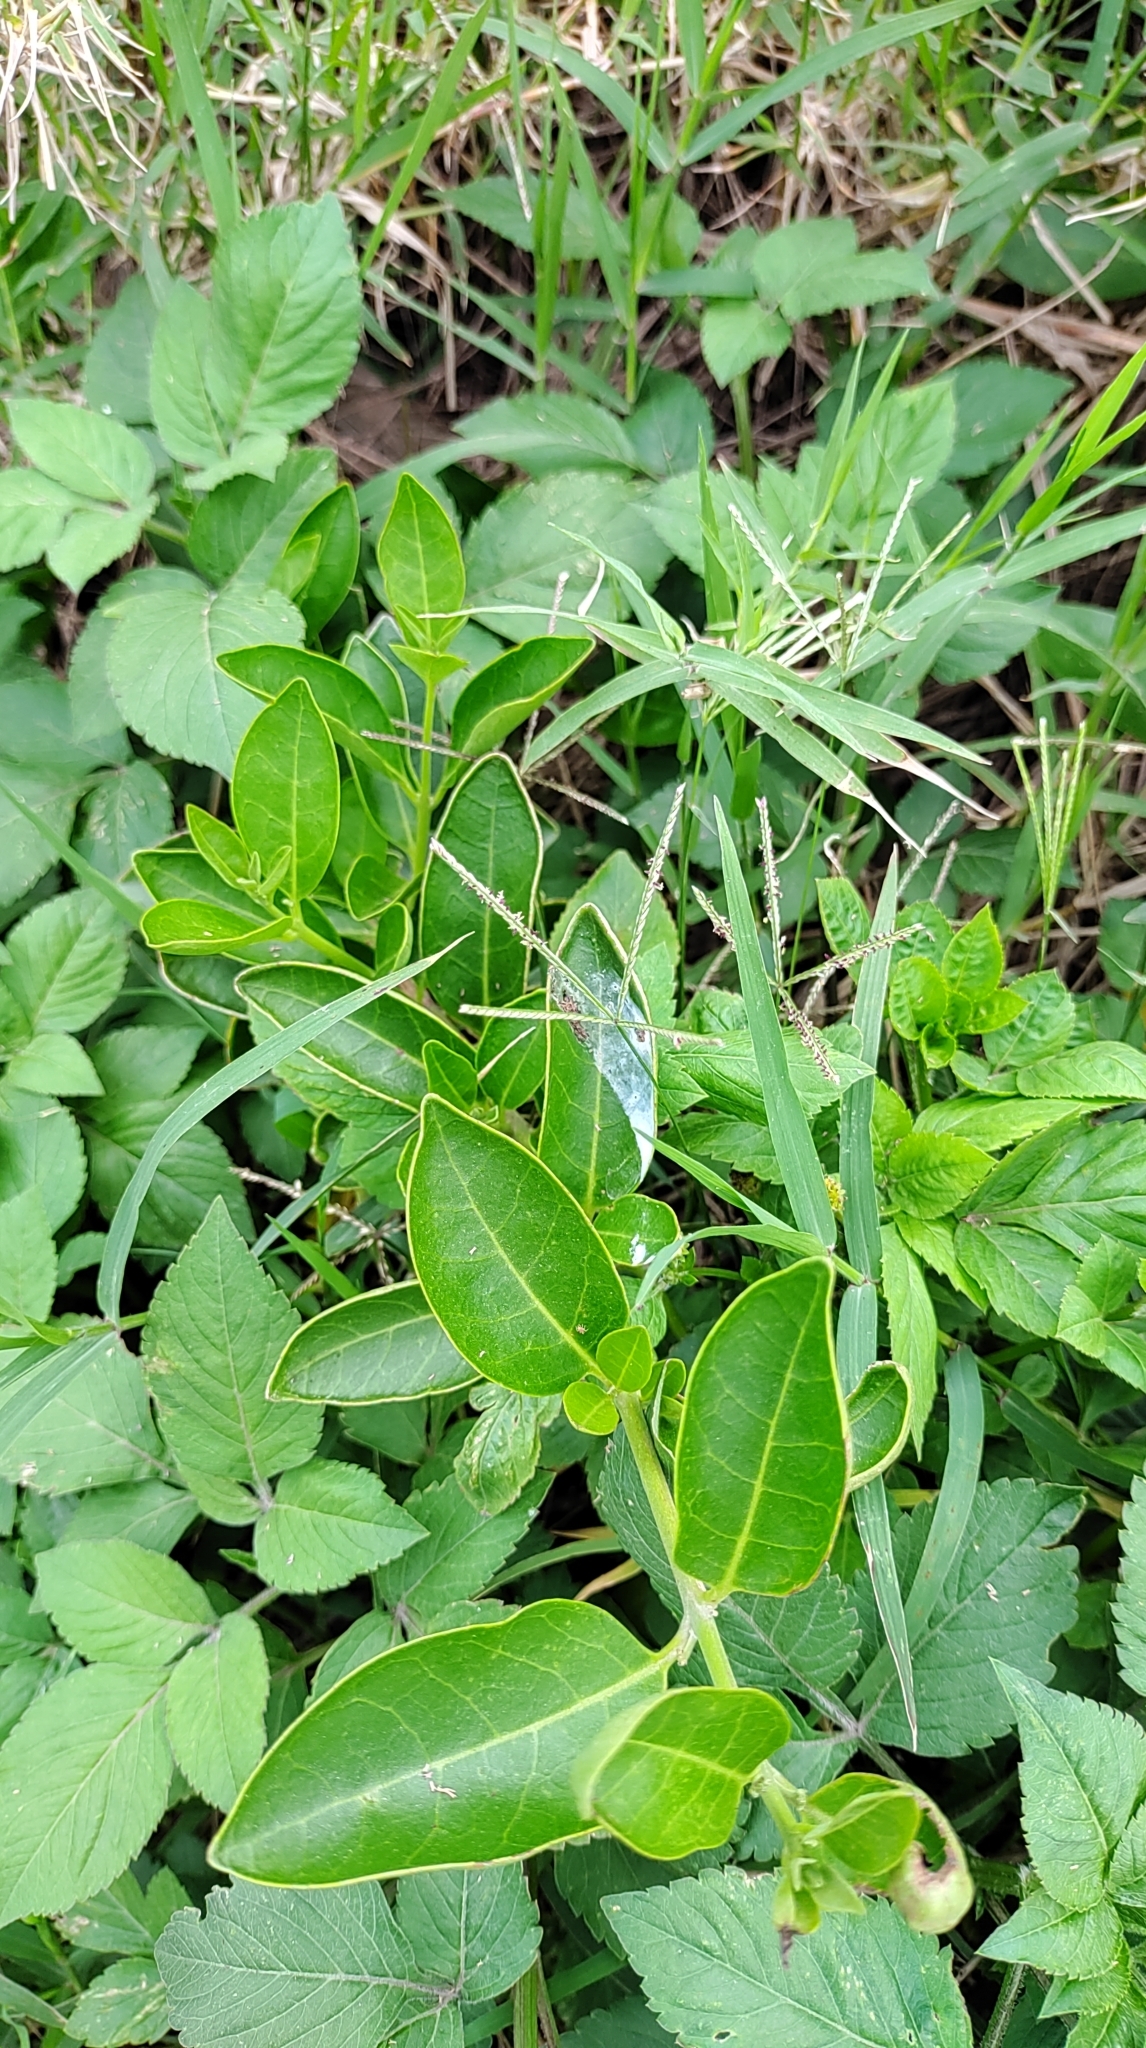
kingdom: Plantae
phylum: Tracheophyta
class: Magnoliopsida
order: Lamiales
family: Lamiaceae
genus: Volkameria
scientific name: Volkameria inermis
